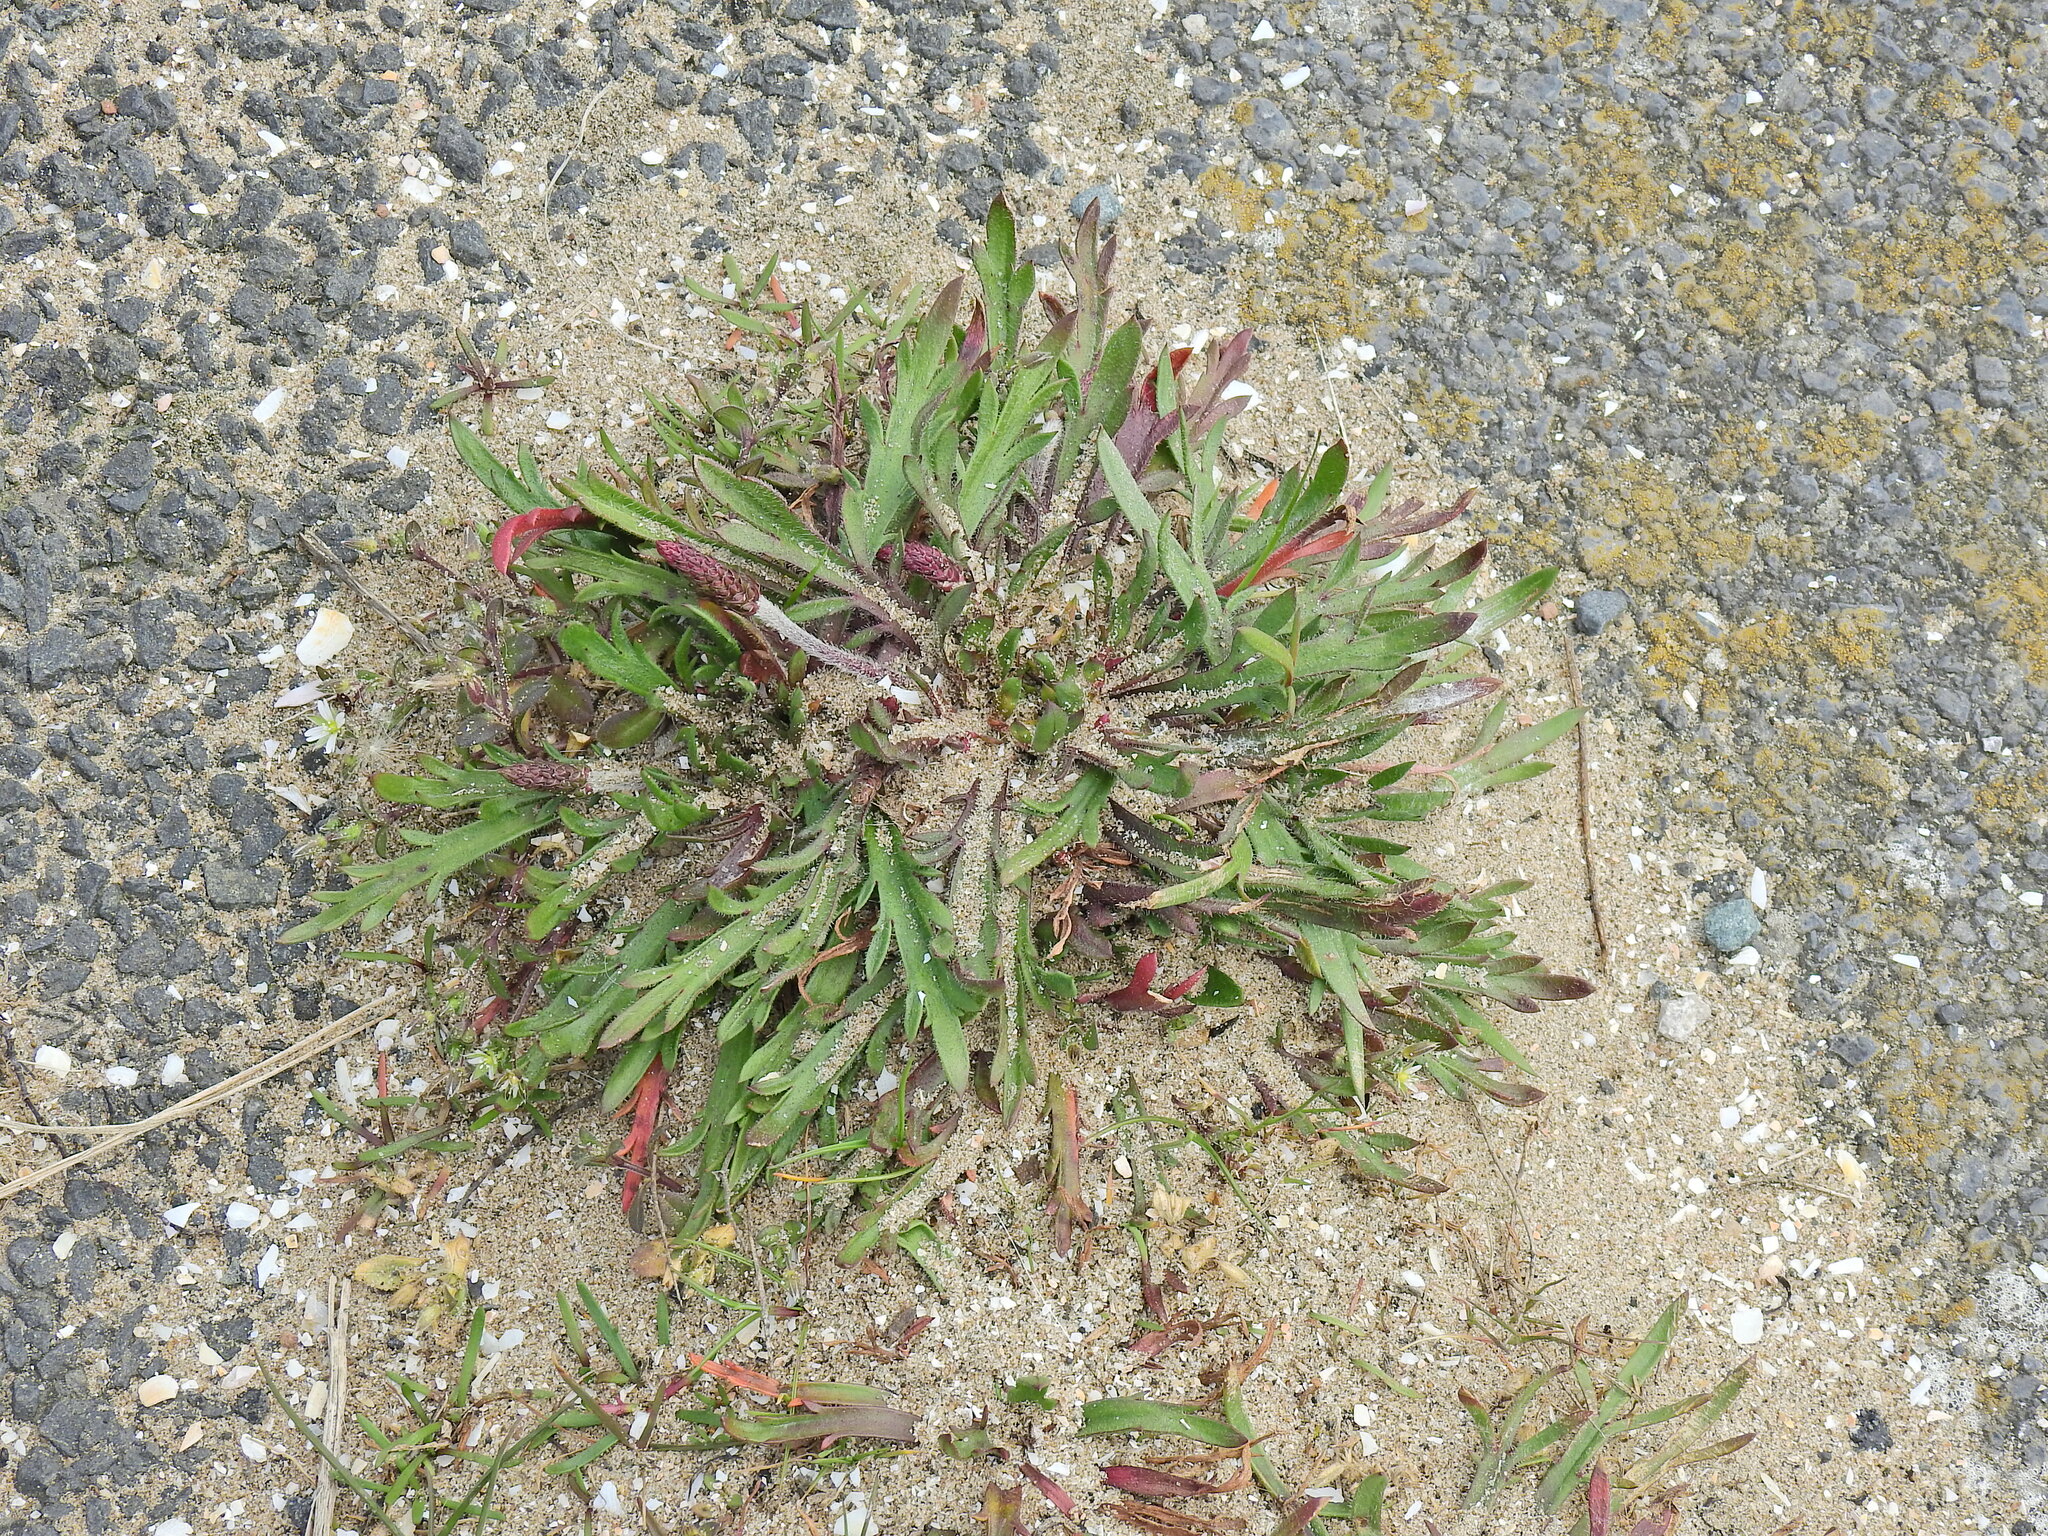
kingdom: Plantae
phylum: Tracheophyta
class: Magnoliopsida
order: Lamiales
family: Plantaginaceae
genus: Plantago
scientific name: Plantago coronopus
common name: Buck's-horn plantain
